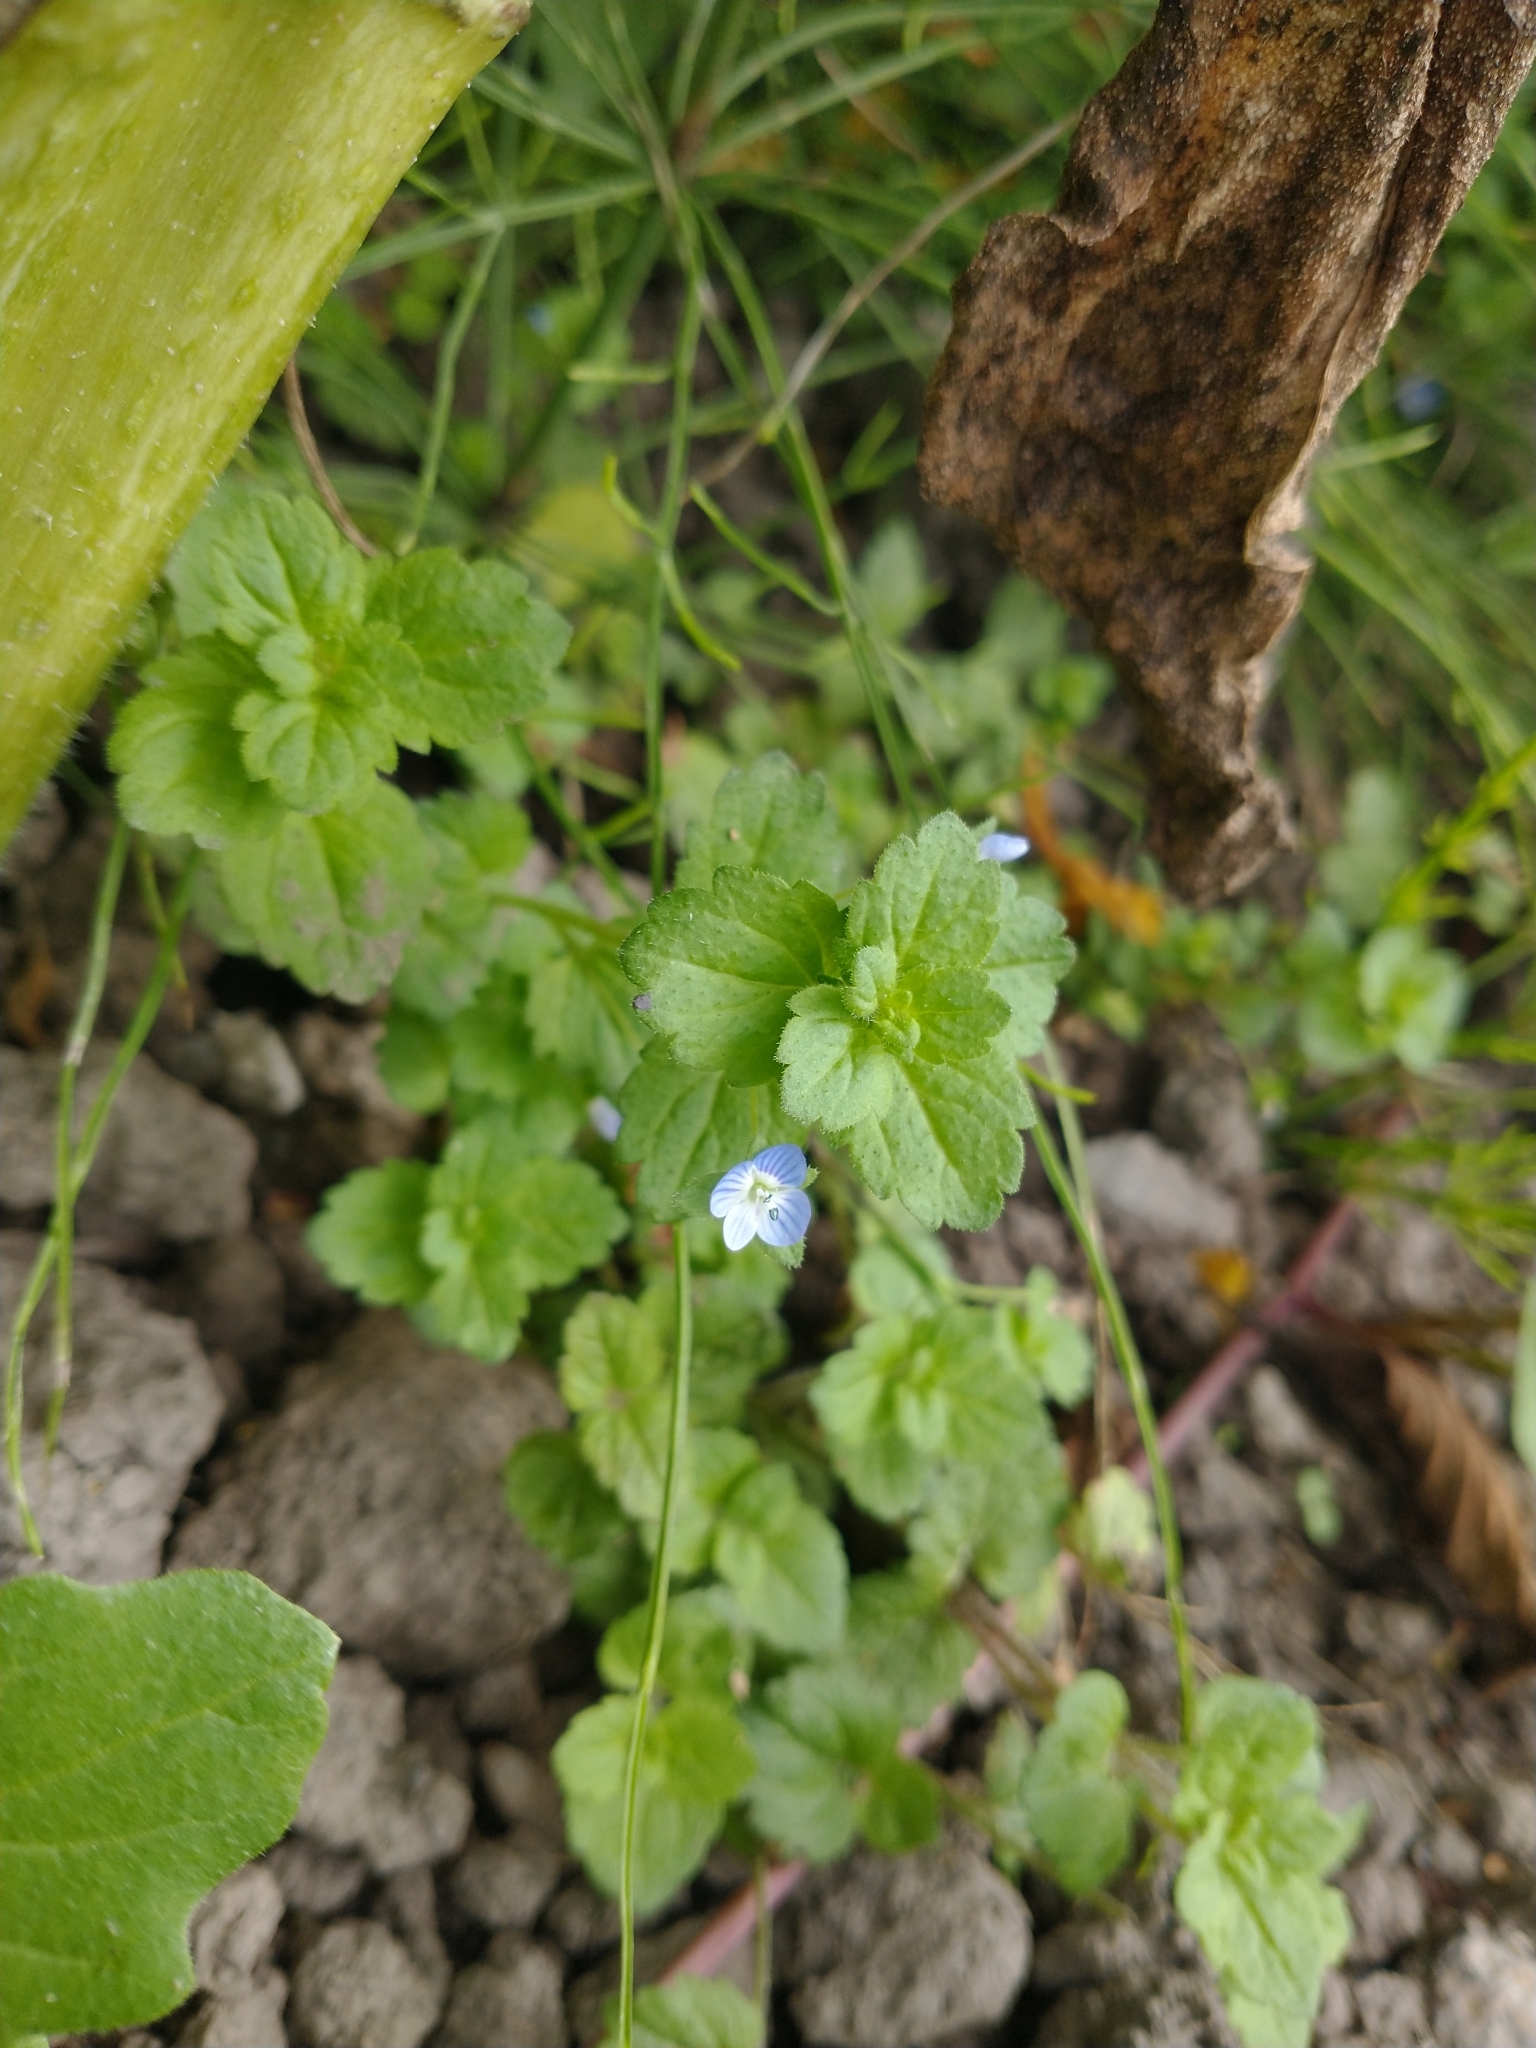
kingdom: Plantae
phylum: Tracheophyta
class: Magnoliopsida
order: Lamiales
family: Plantaginaceae
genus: Veronica
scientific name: Veronica persica
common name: Common field-speedwell
